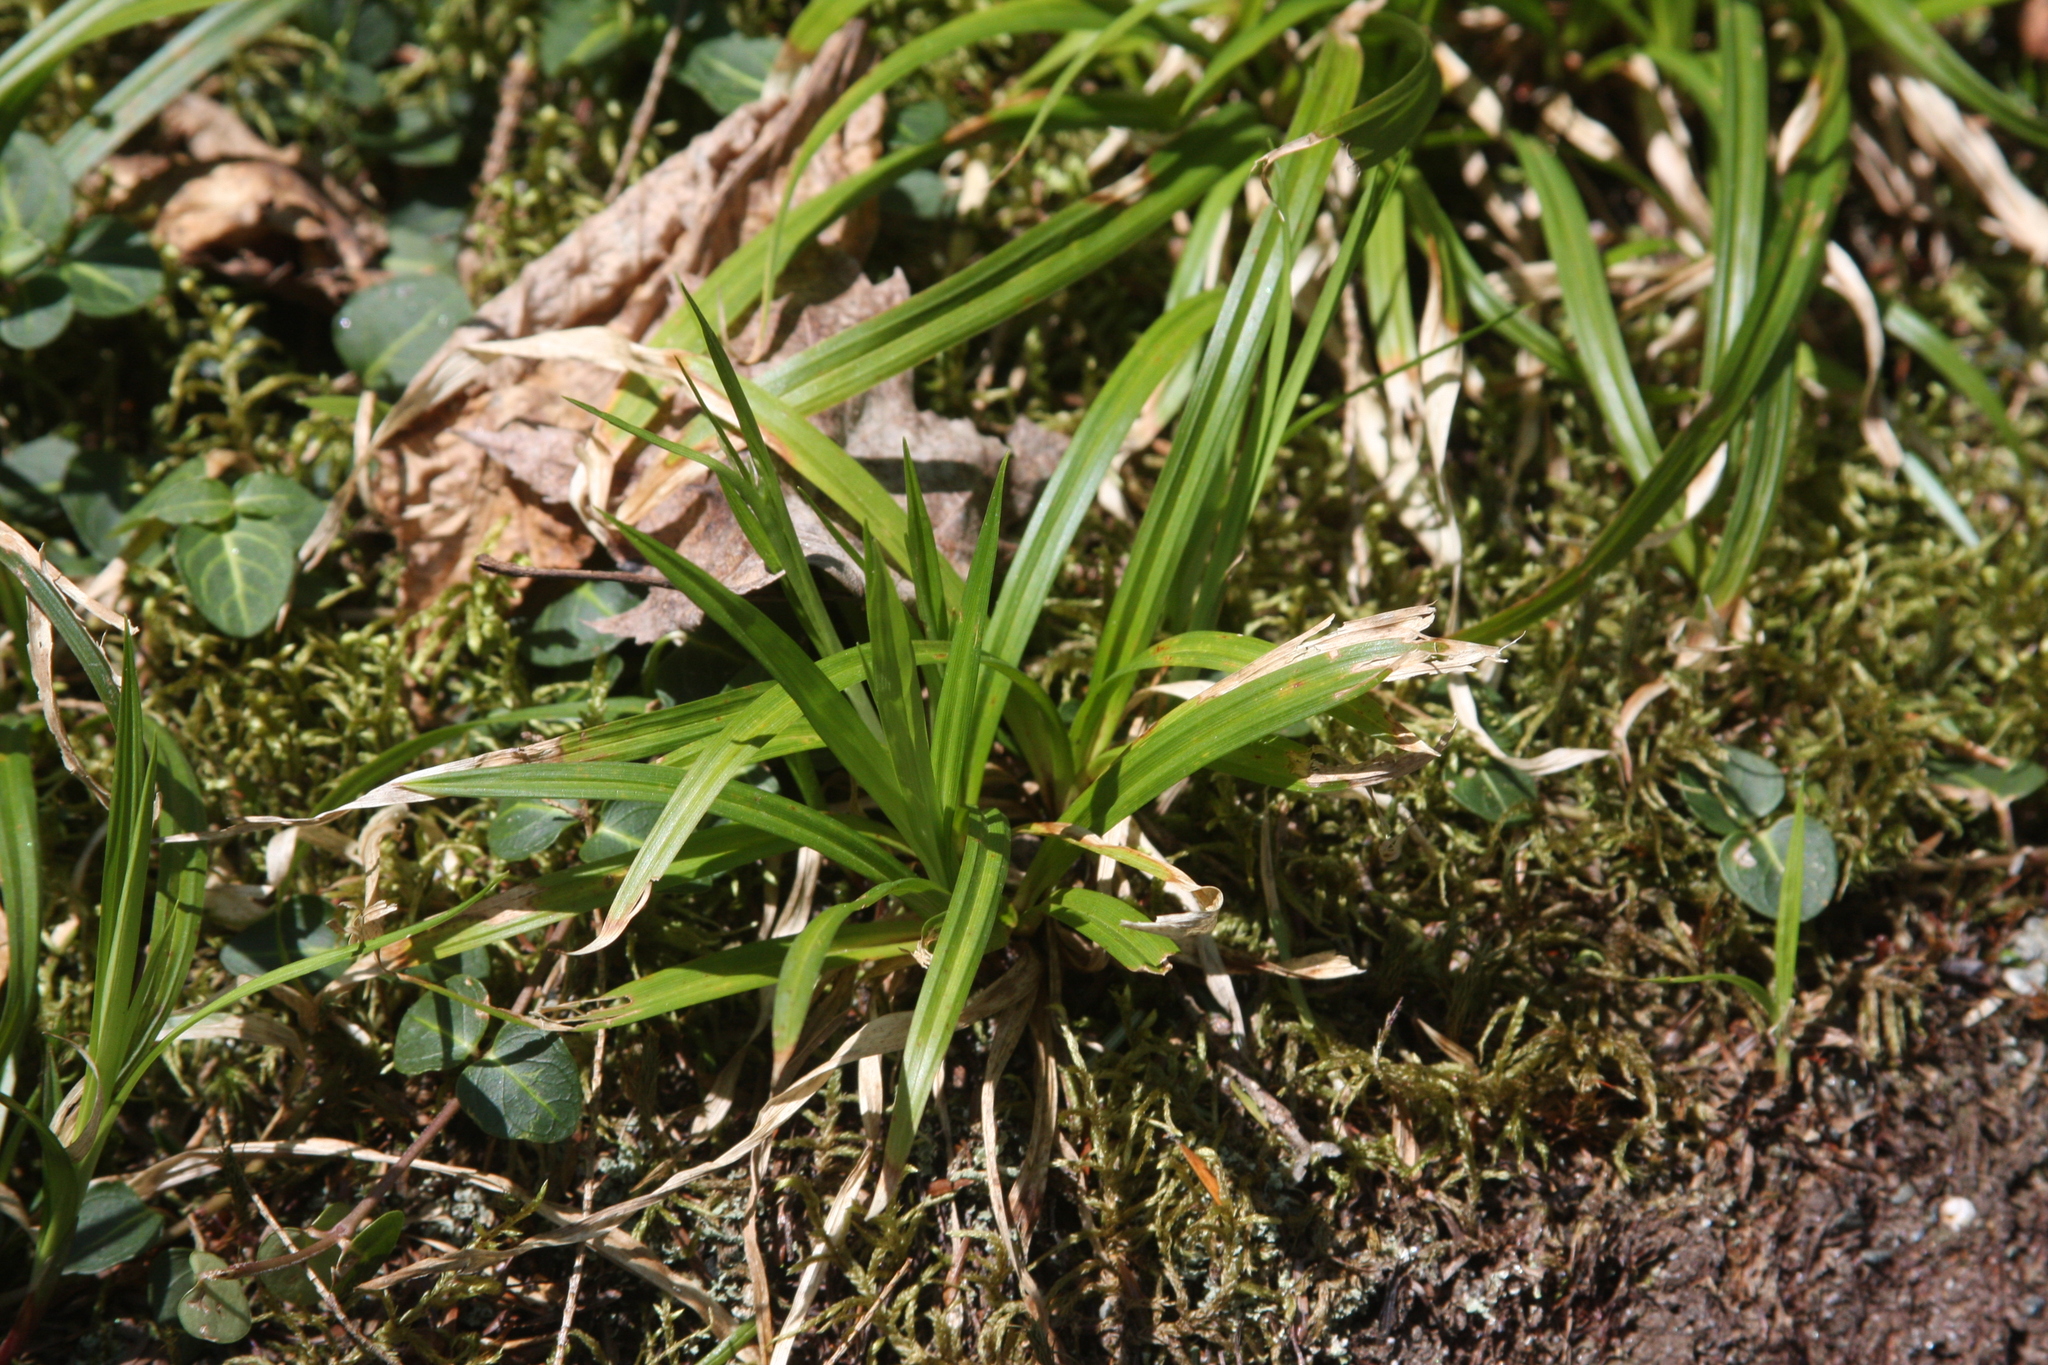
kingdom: Plantae
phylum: Tracheophyta
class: Magnoliopsida
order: Gentianales
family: Rubiaceae
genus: Mitchella
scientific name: Mitchella repens
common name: Partridge-berry
